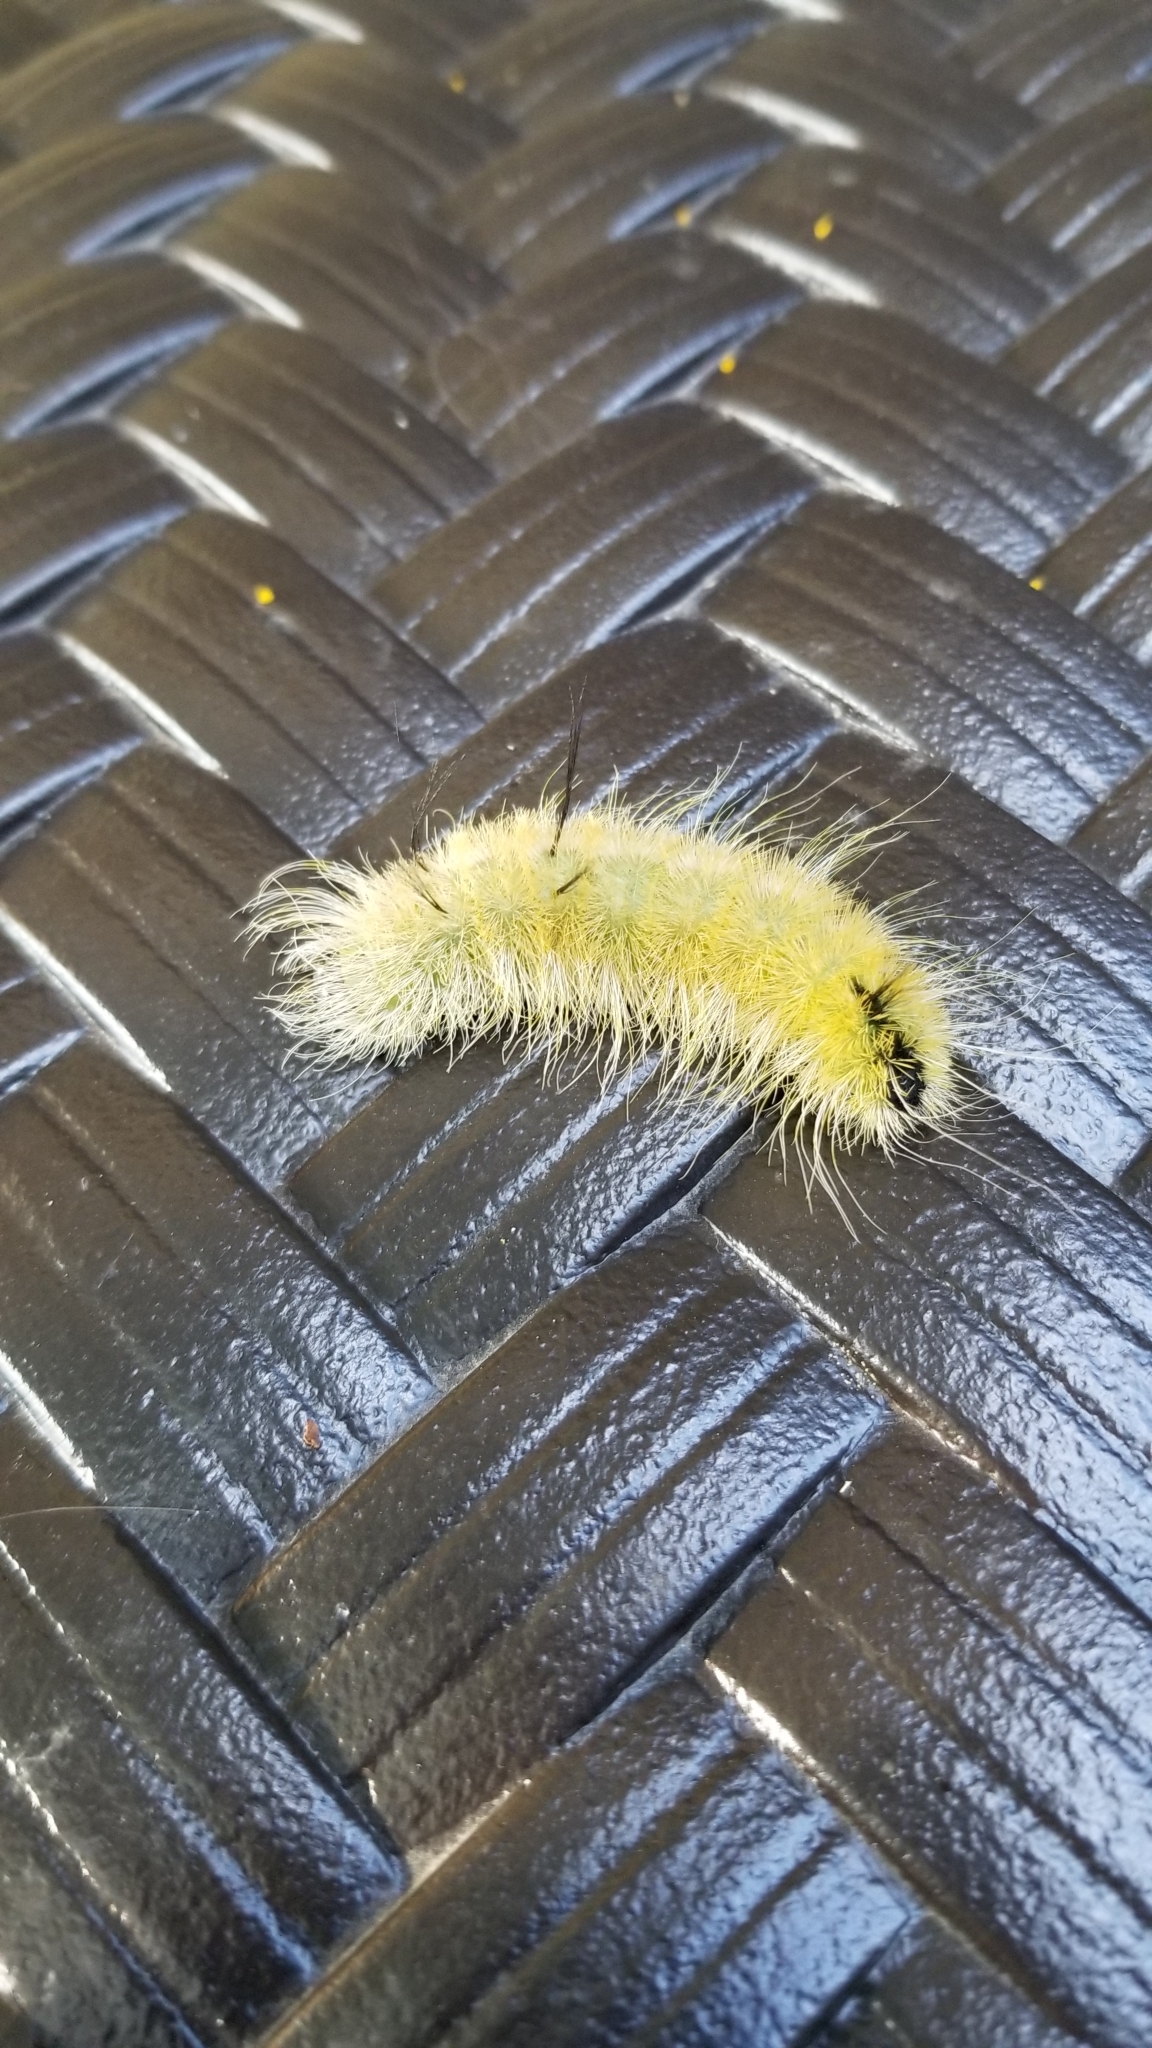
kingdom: Animalia
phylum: Arthropoda
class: Insecta
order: Lepidoptera
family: Noctuidae
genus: Acronicta
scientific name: Acronicta americana
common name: American dagger
